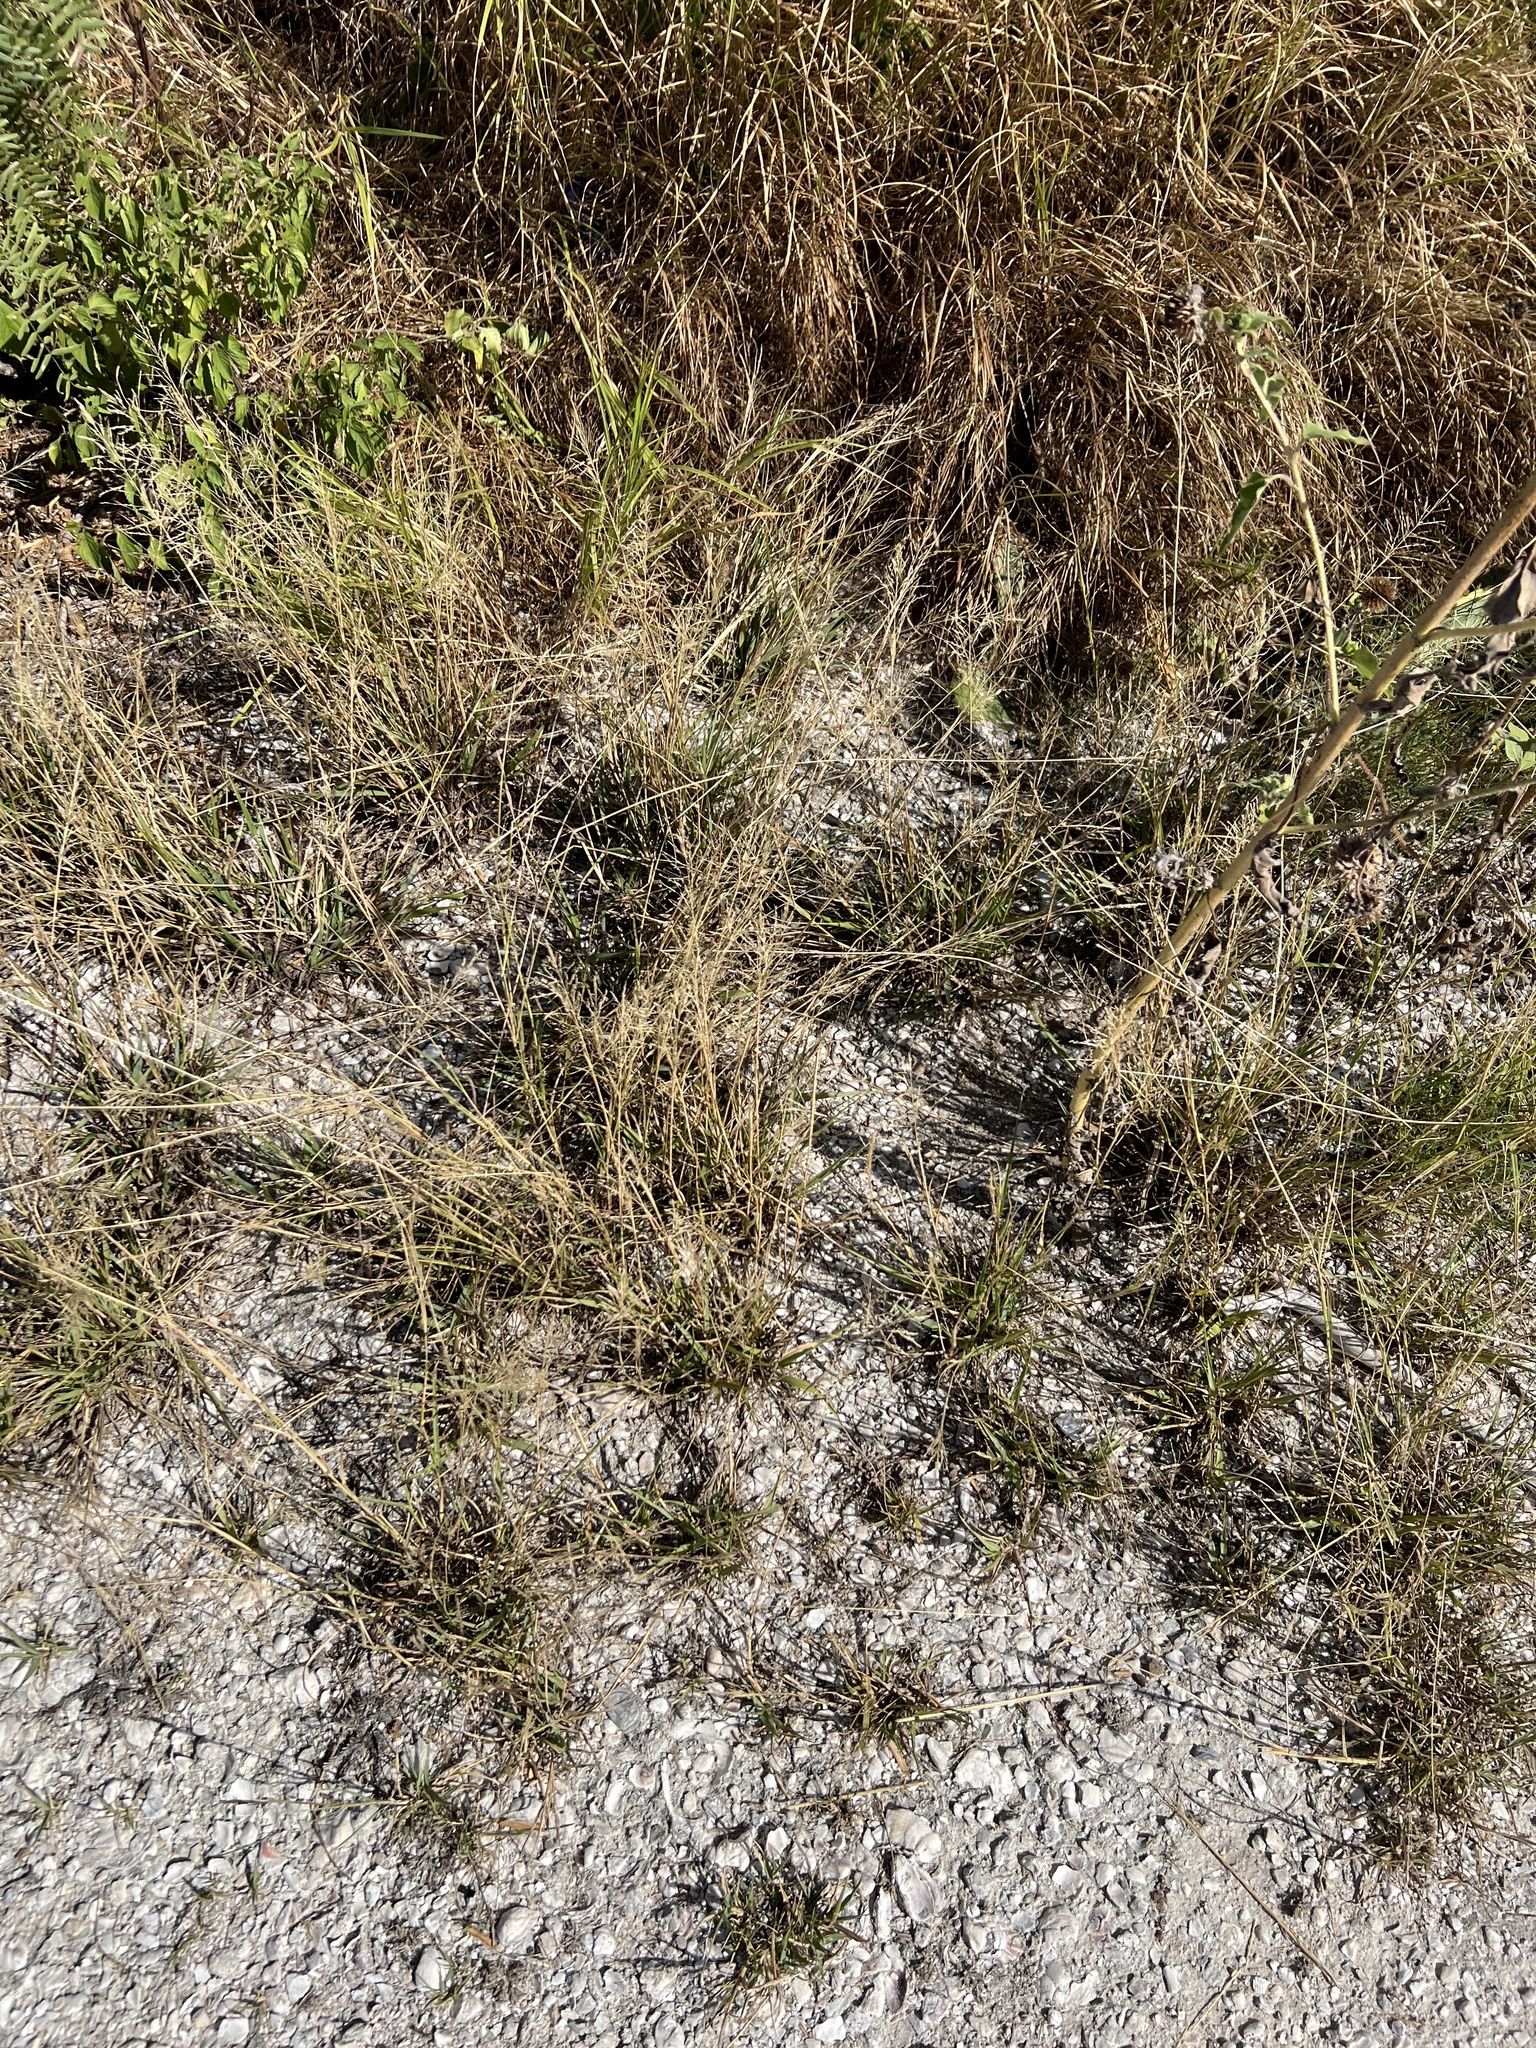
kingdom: Plantae
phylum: Tracheophyta
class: Liliopsida
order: Poales
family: Poaceae
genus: Sporobolus
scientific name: Sporobolus pyramidatus
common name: Whorled dropseed
